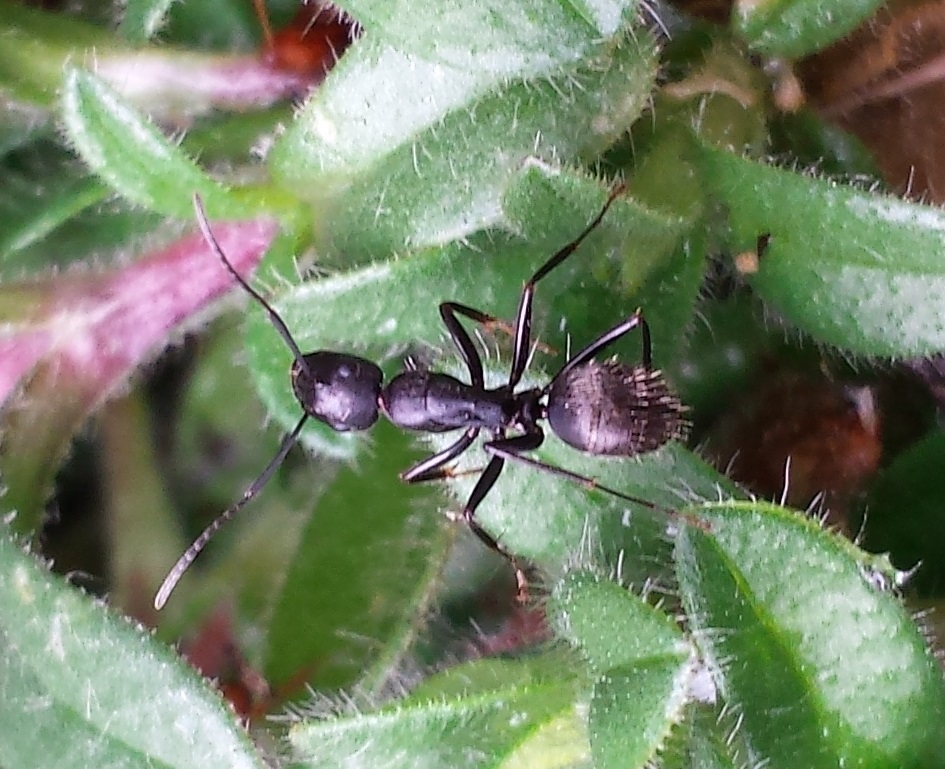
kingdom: Animalia
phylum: Arthropoda
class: Insecta
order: Hymenoptera
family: Formicidae
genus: Camponotus
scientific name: Camponotus pennsylvanicus
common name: Black carpenter ant
